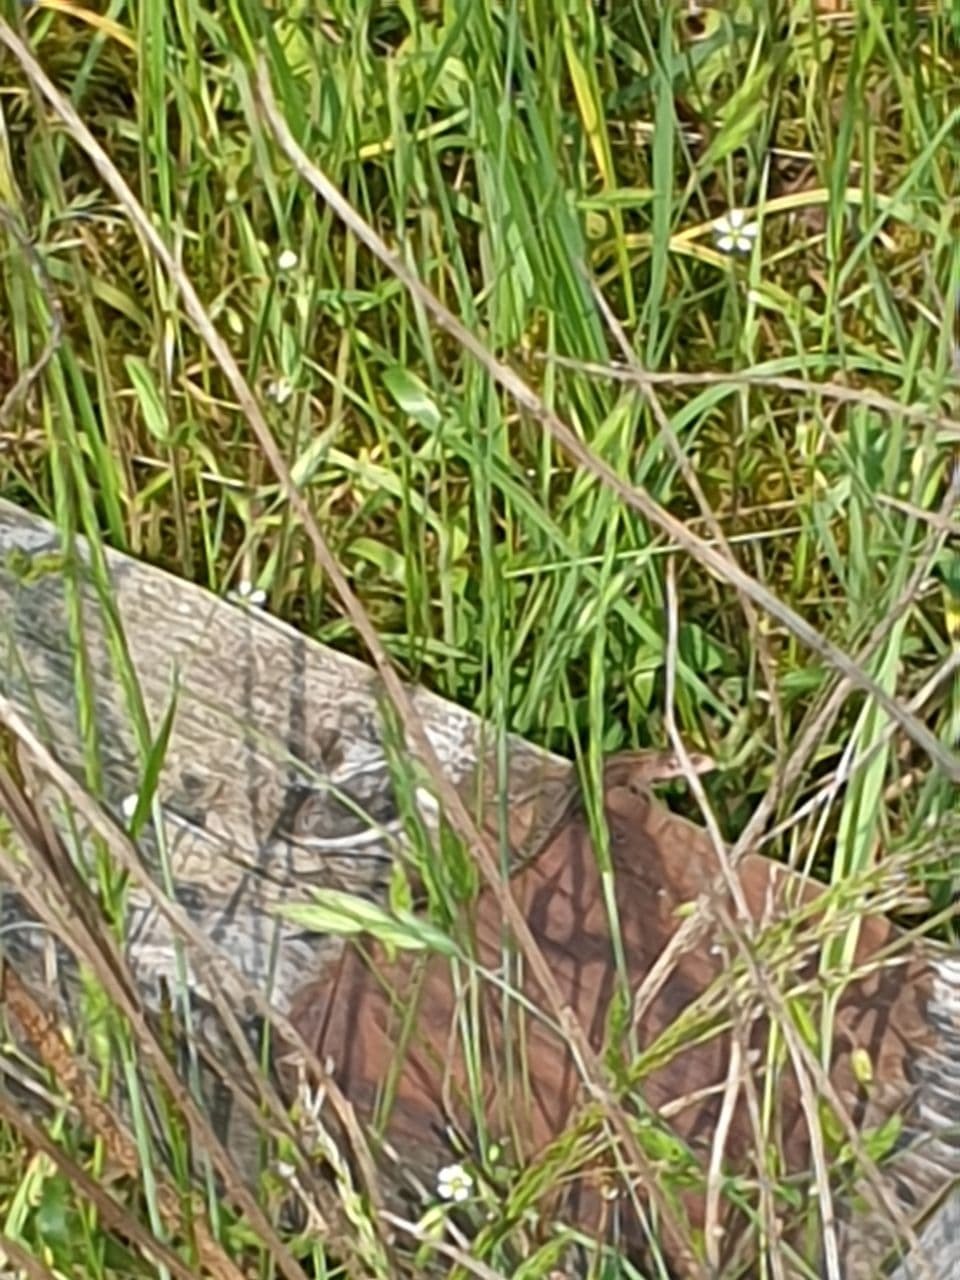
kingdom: Animalia
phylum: Chordata
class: Squamata
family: Lacertidae
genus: Zootoca
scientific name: Zootoca vivipara
